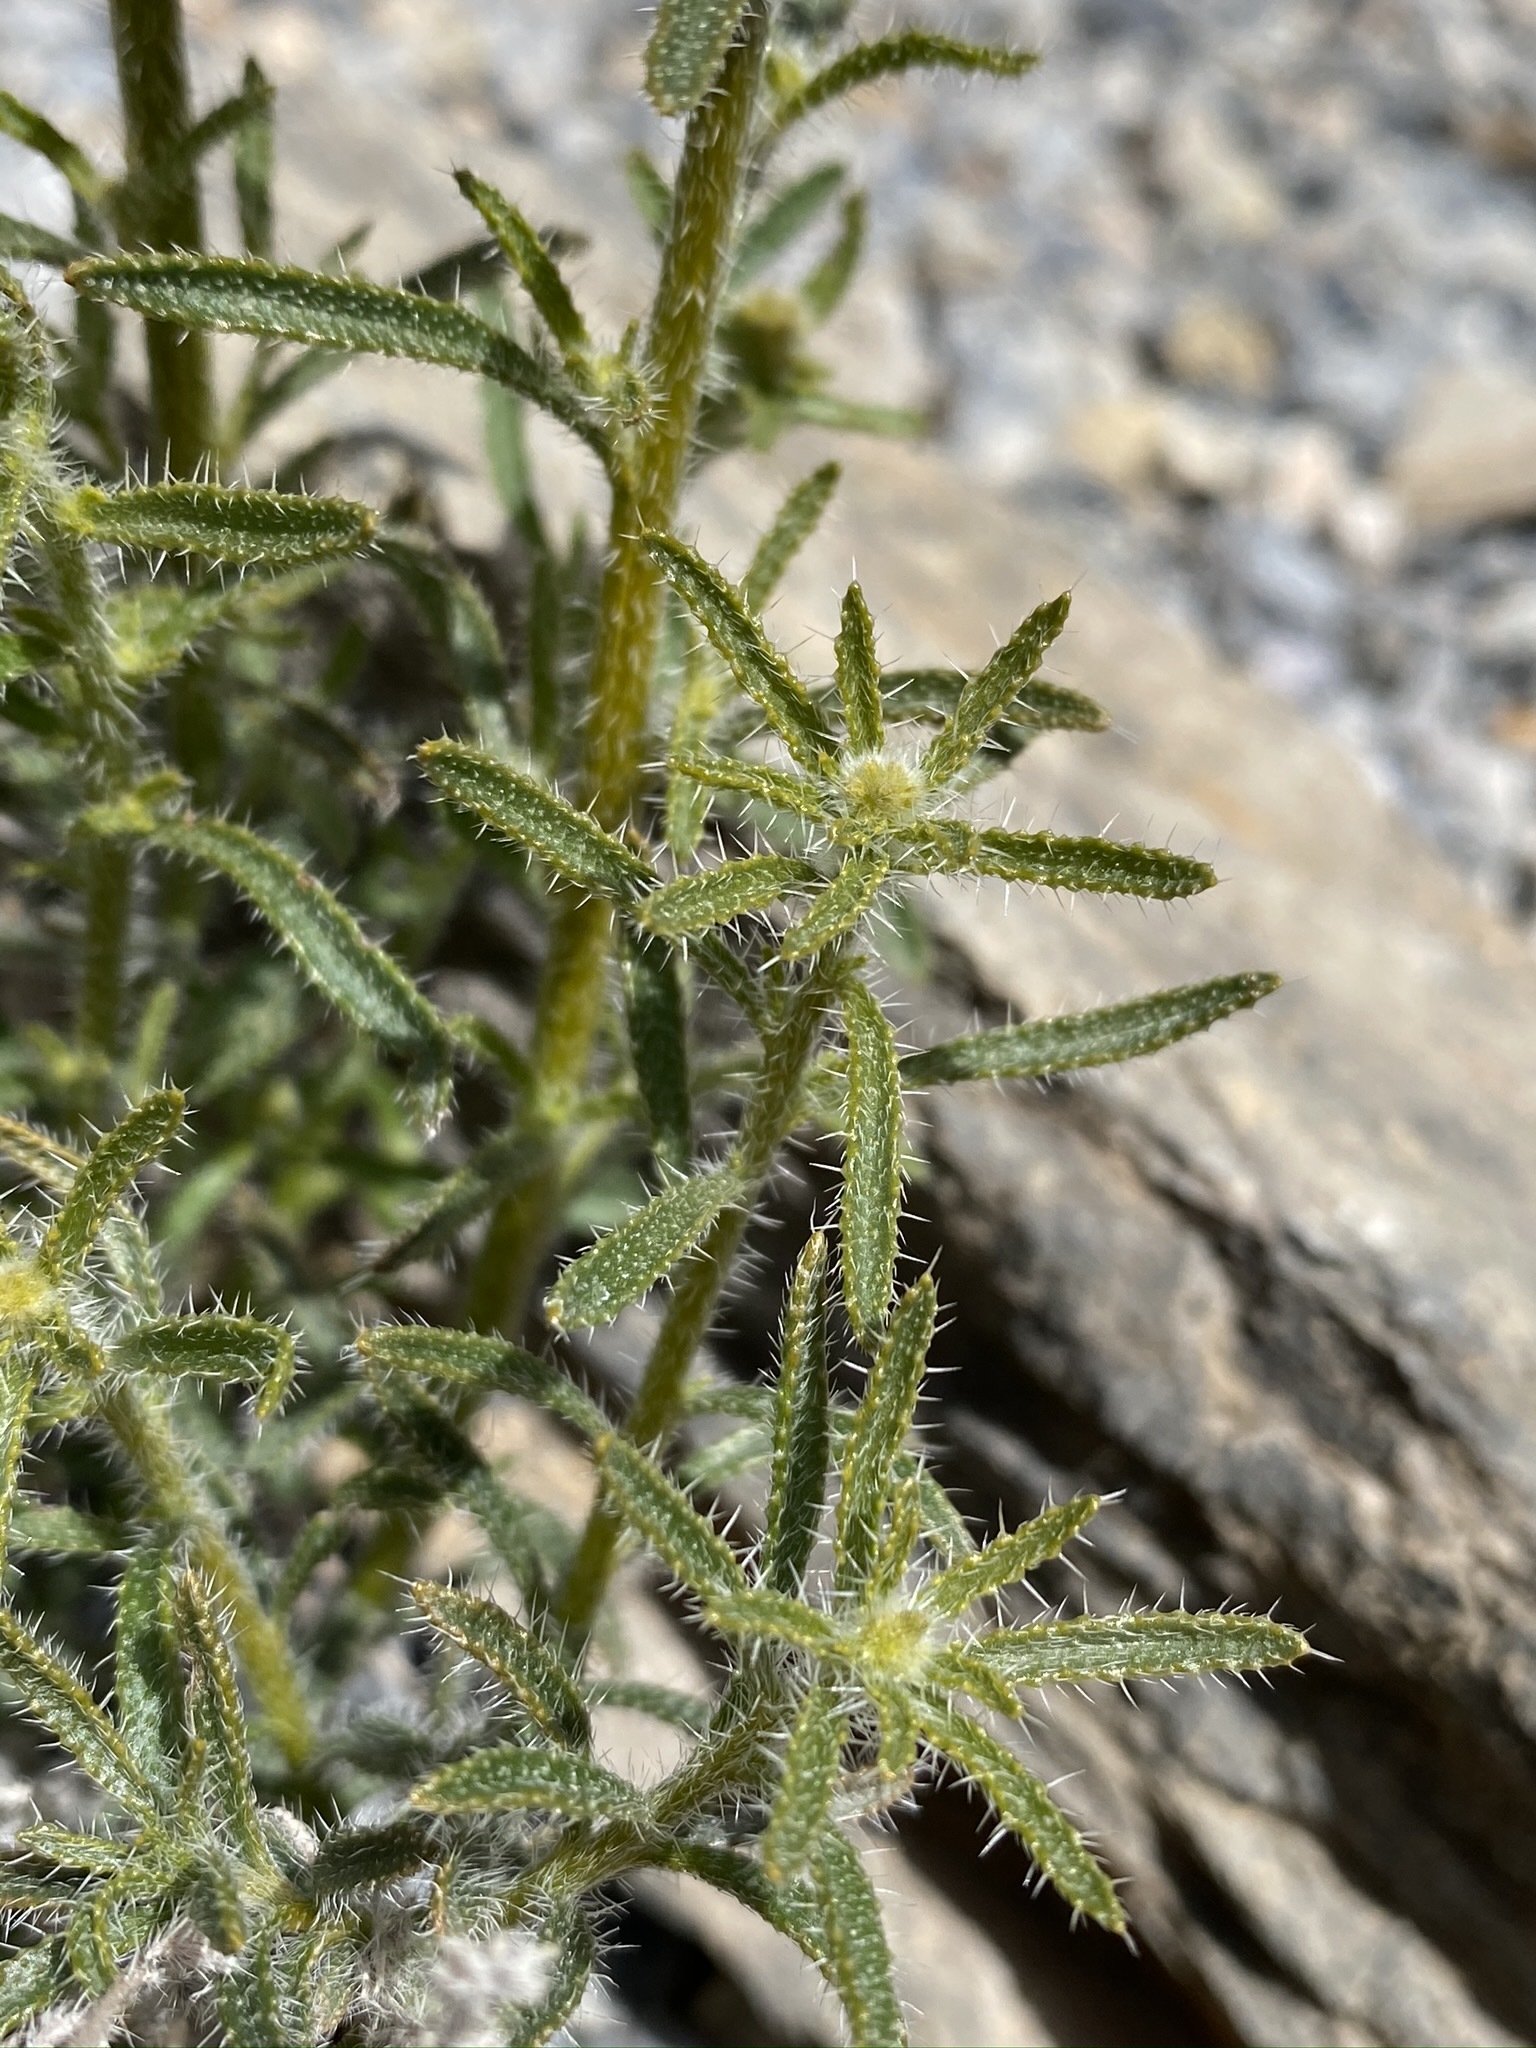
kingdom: Plantae
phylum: Tracheophyta
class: Magnoliopsida
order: Boraginales
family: Boraginaceae
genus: Johnstonella
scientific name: Johnstonella holoptera
